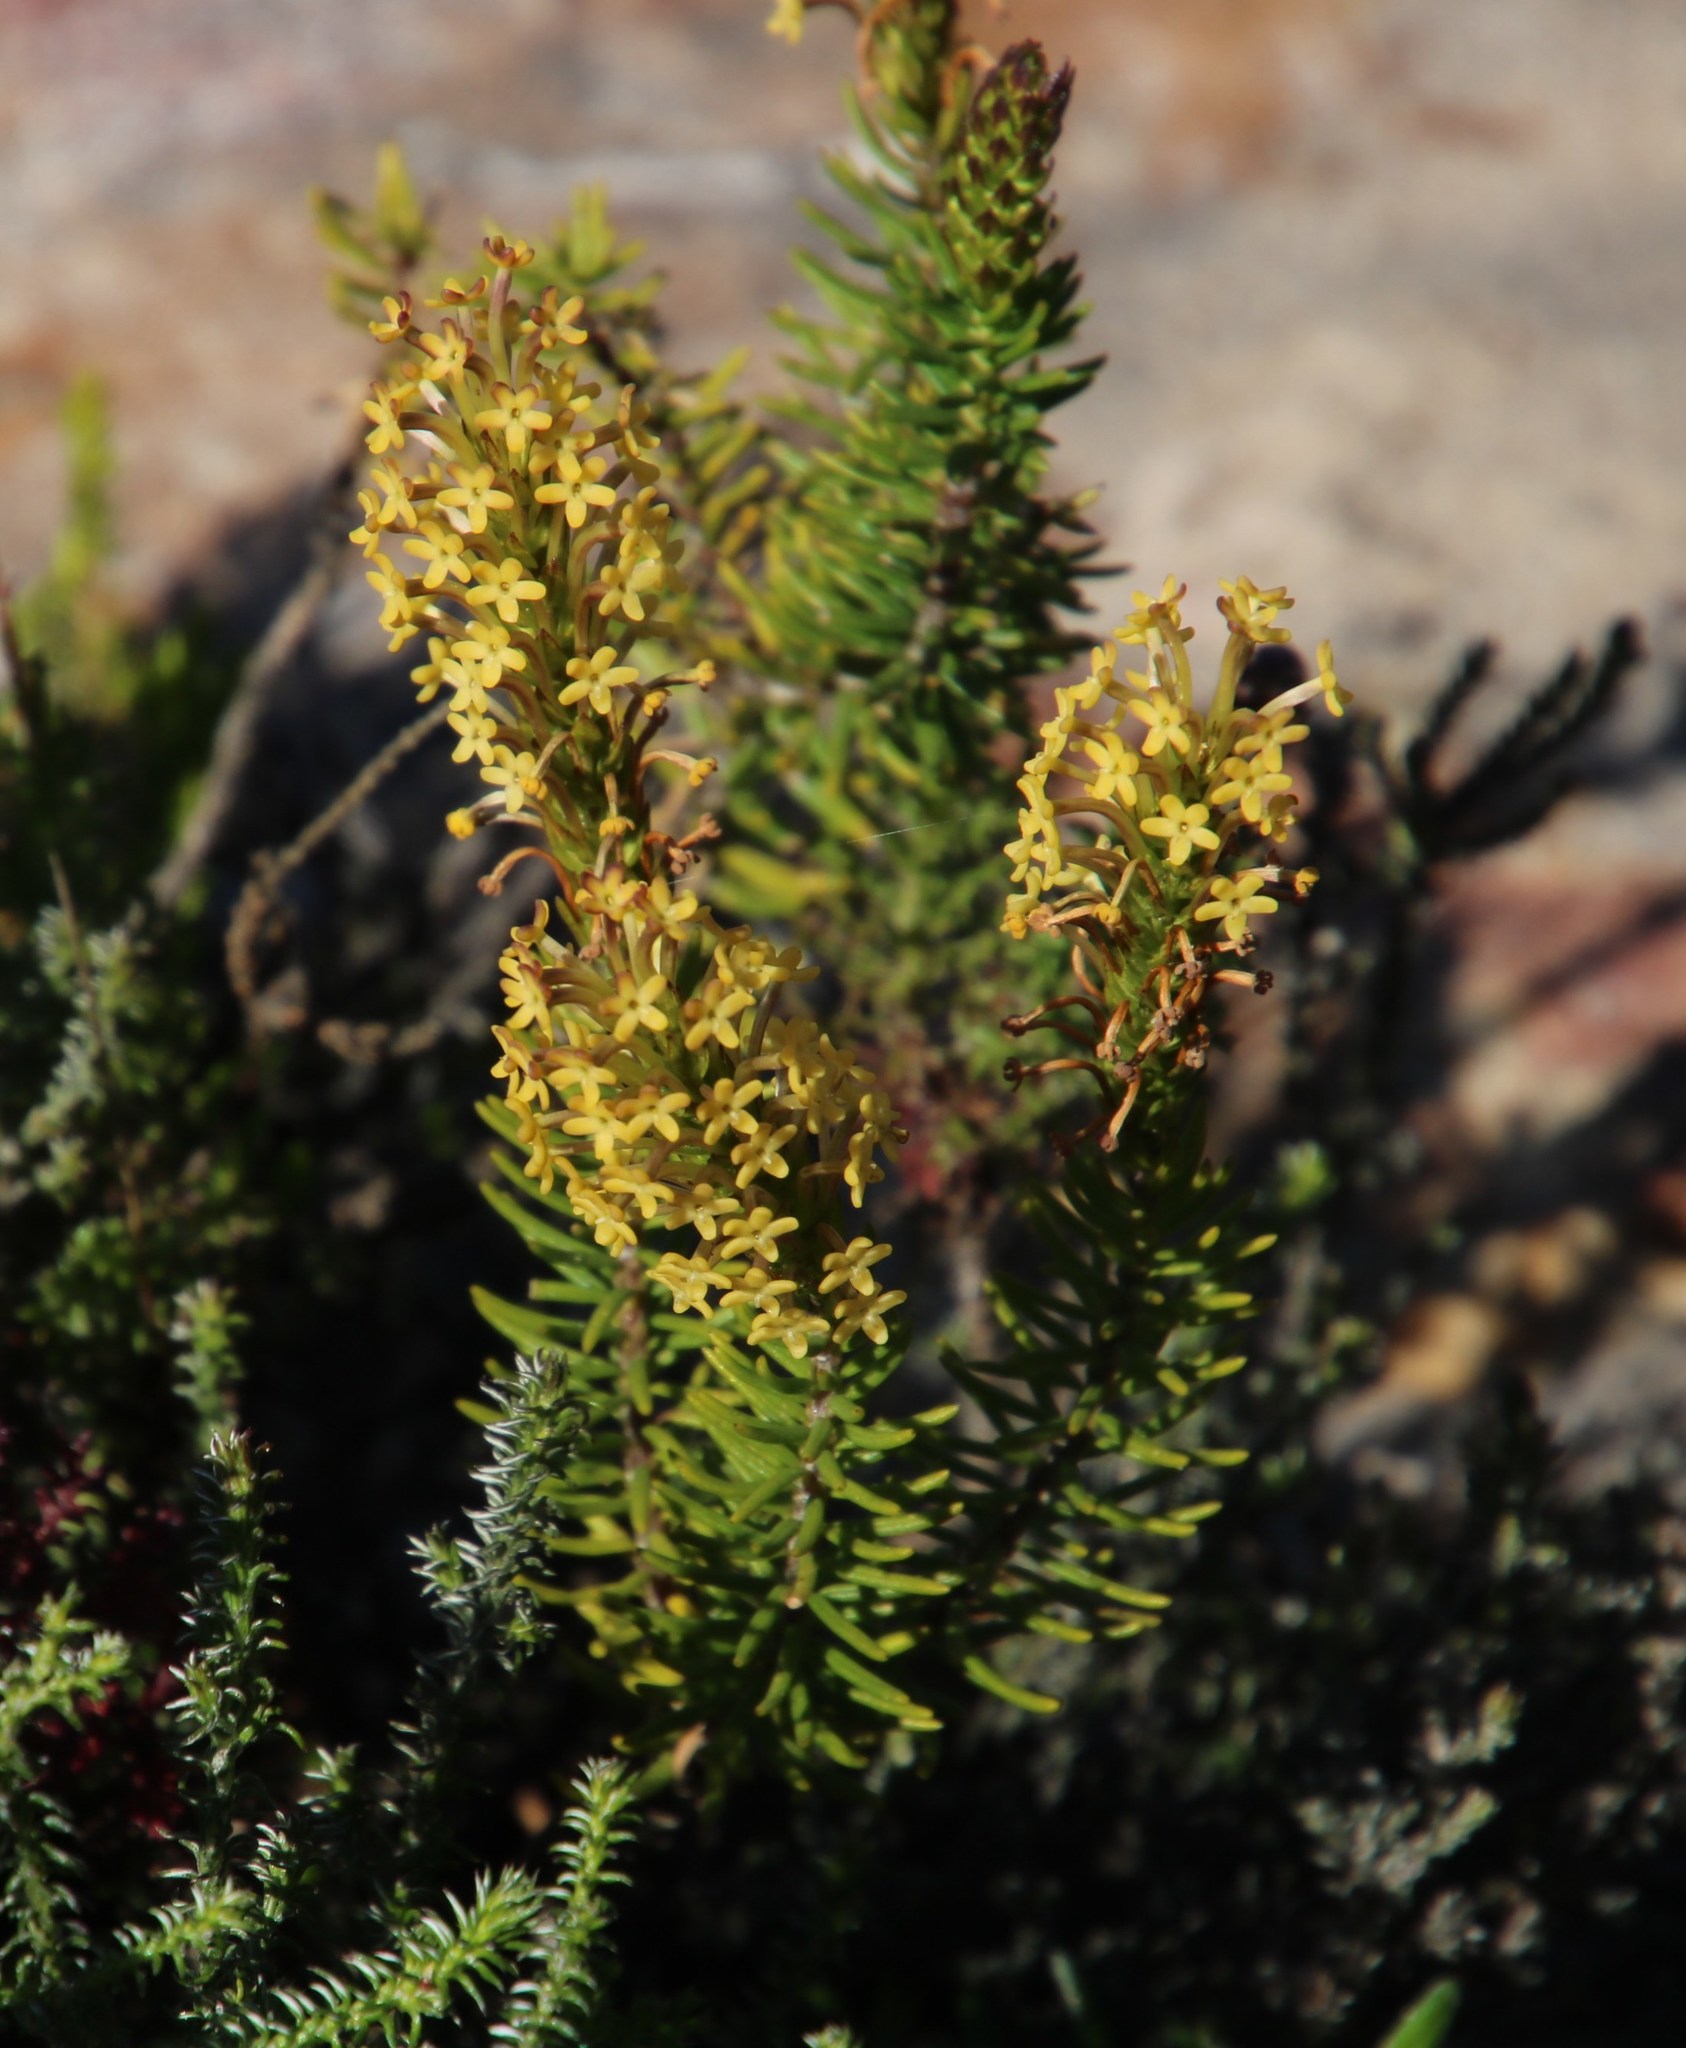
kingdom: Plantae
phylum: Tracheophyta
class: Magnoliopsida
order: Lamiales
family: Scrophulariaceae
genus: Microdon
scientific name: Microdon dubius
